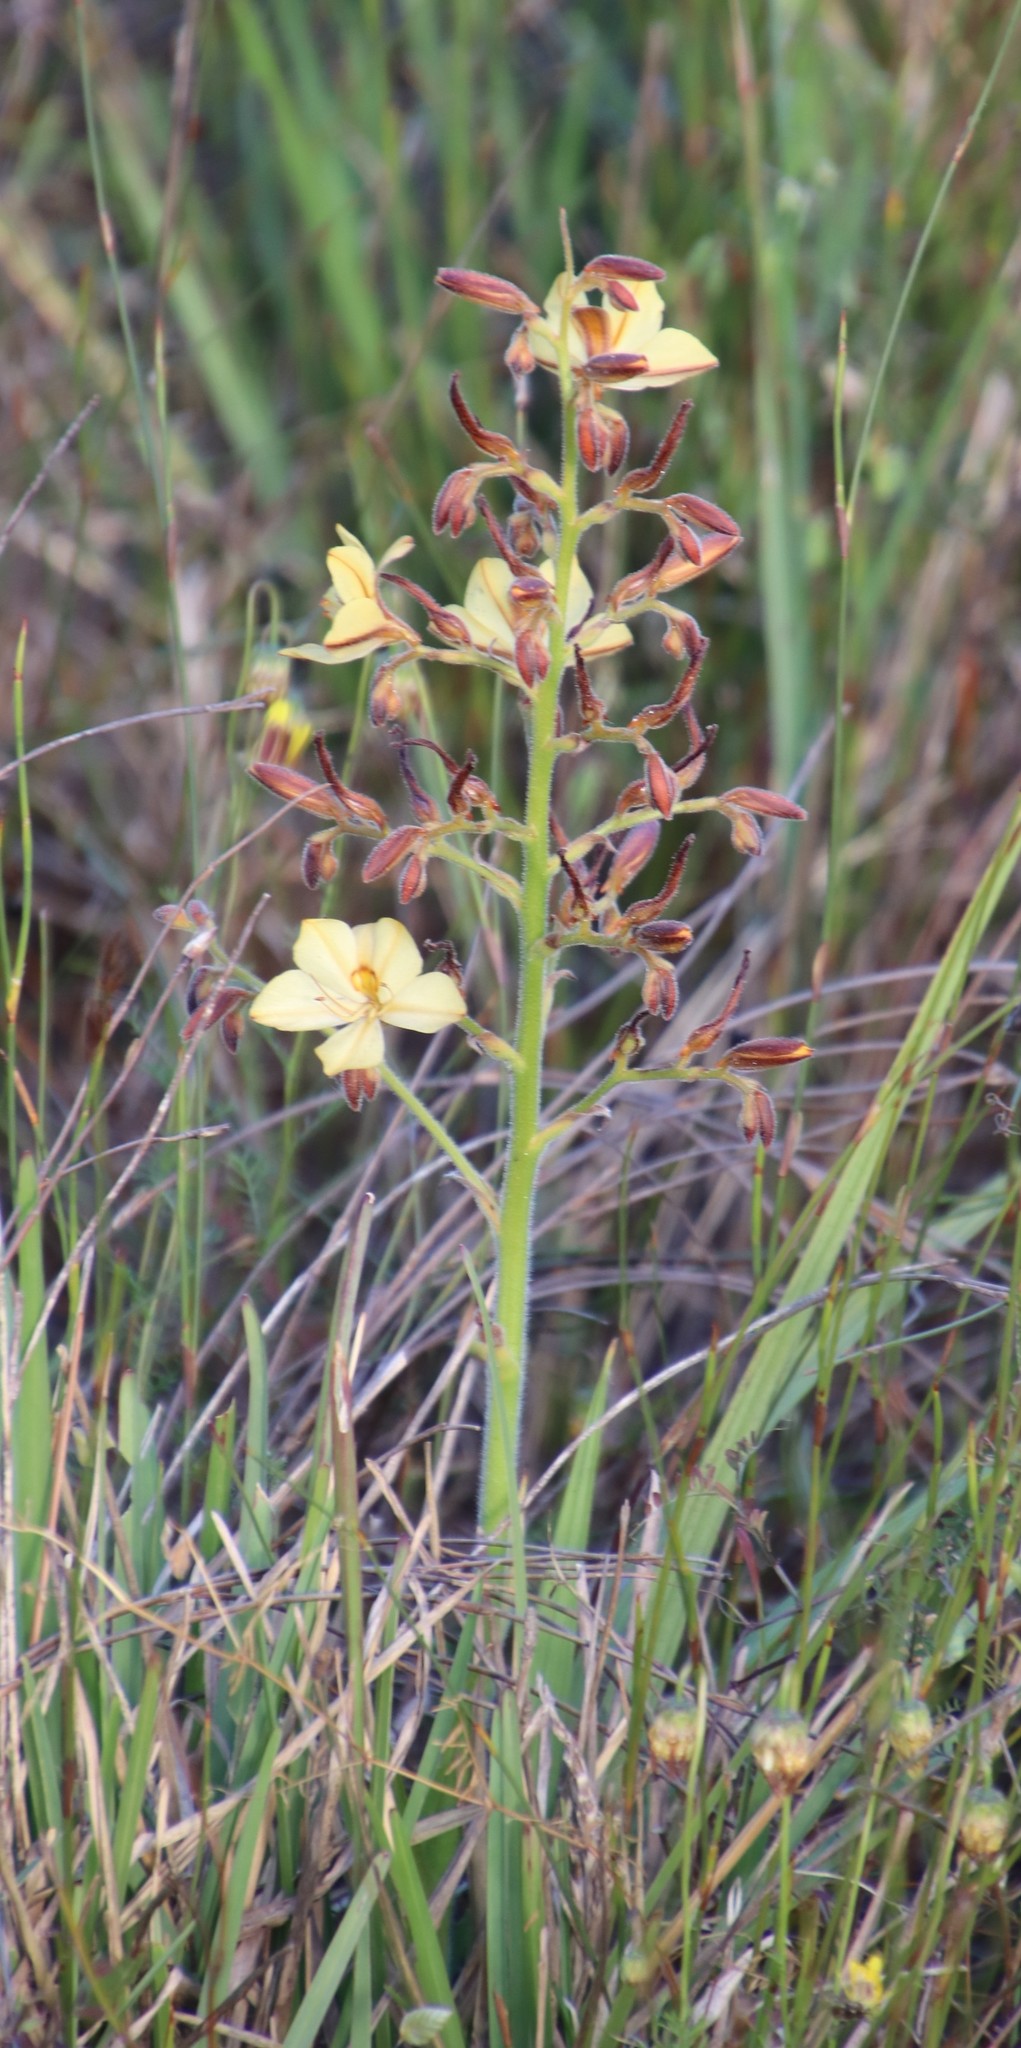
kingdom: Plantae
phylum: Tracheophyta
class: Liliopsida
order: Commelinales
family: Haemodoraceae
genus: Wachendorfia
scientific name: Wachendorfia paniculata
